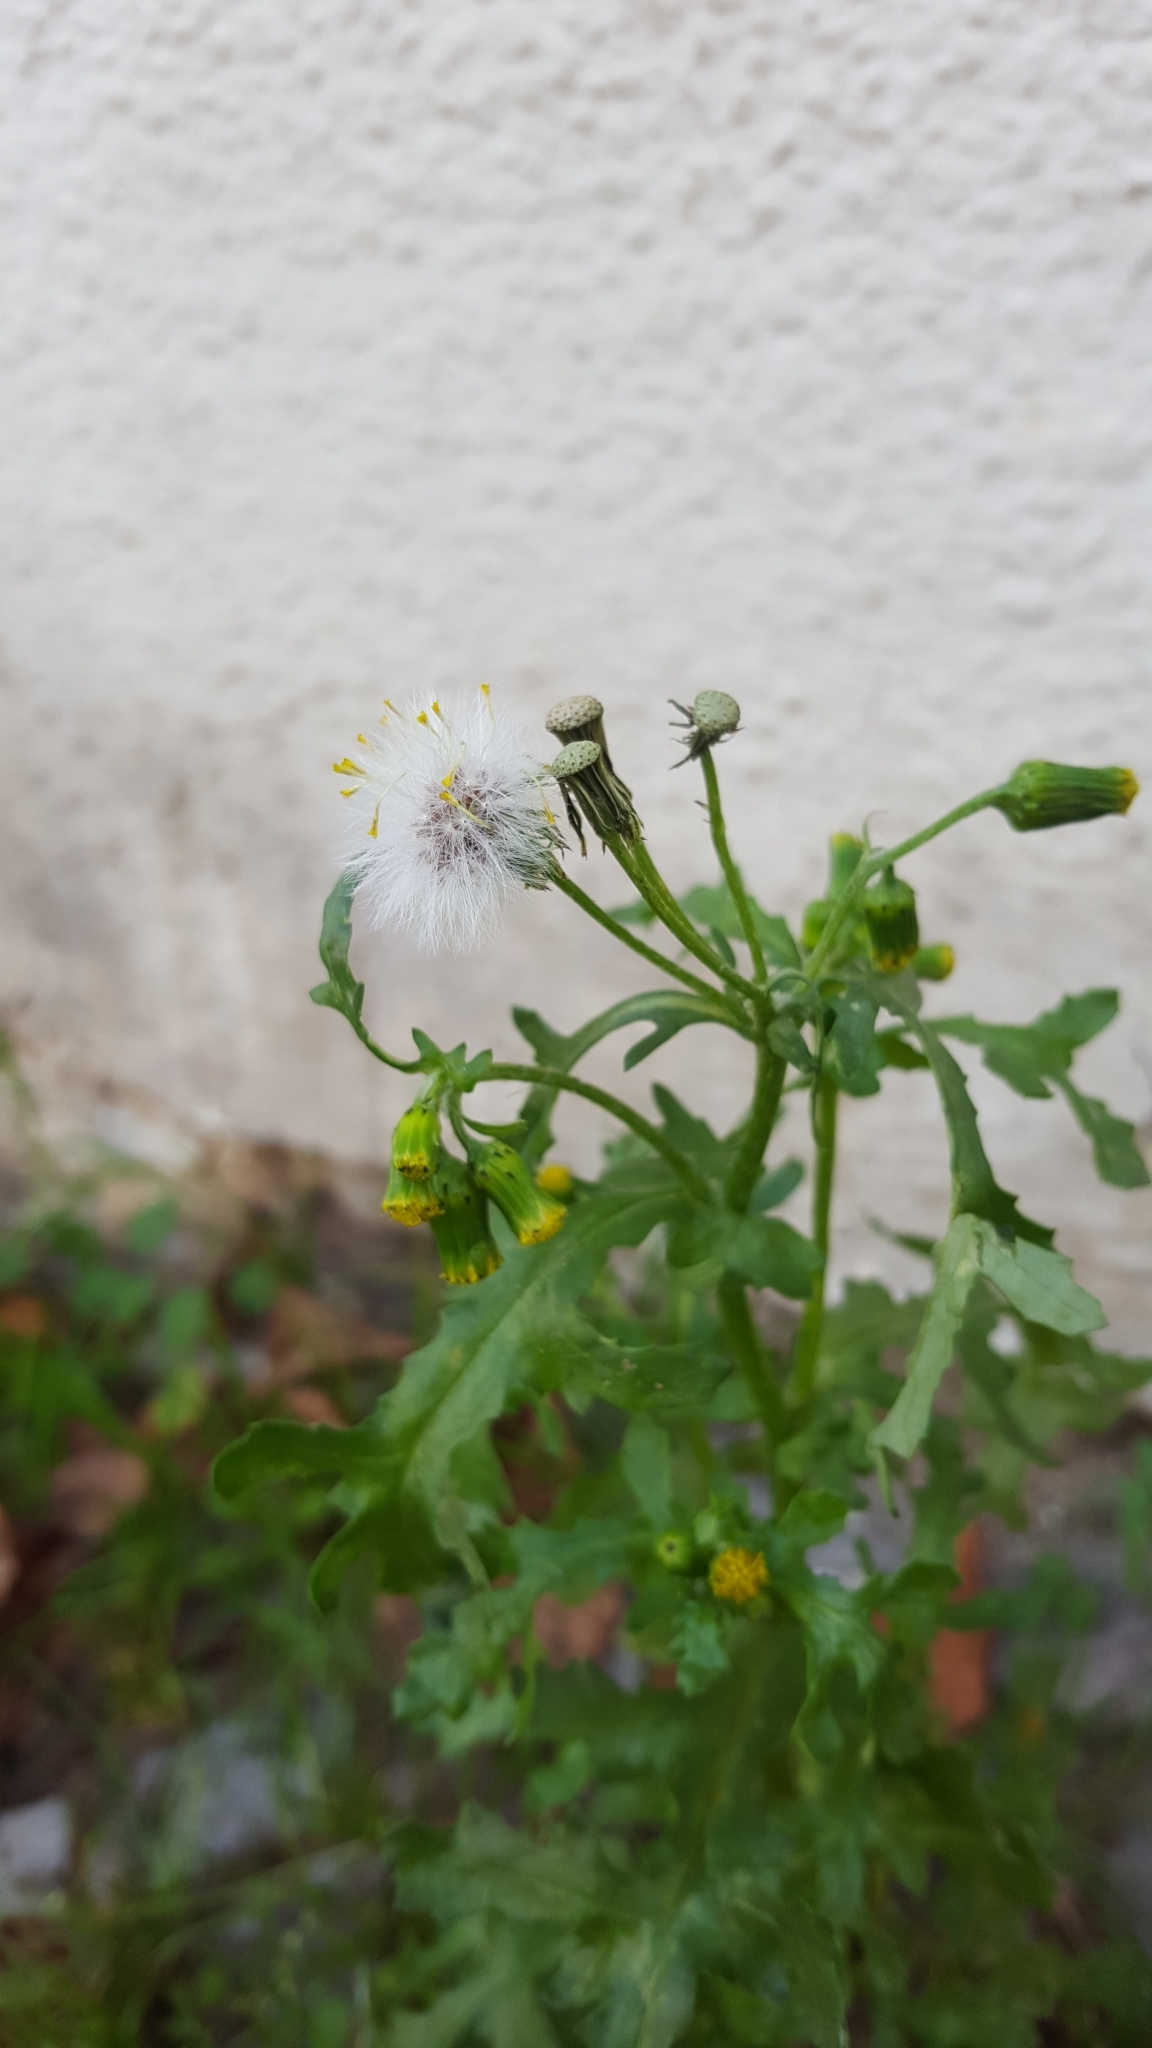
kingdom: Plantae
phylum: Tracheophyta
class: Magnoliopsida
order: Asterales
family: Asteraceae
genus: Senecio
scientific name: Senecio vulgaris
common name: Old-man-in-the-spring
